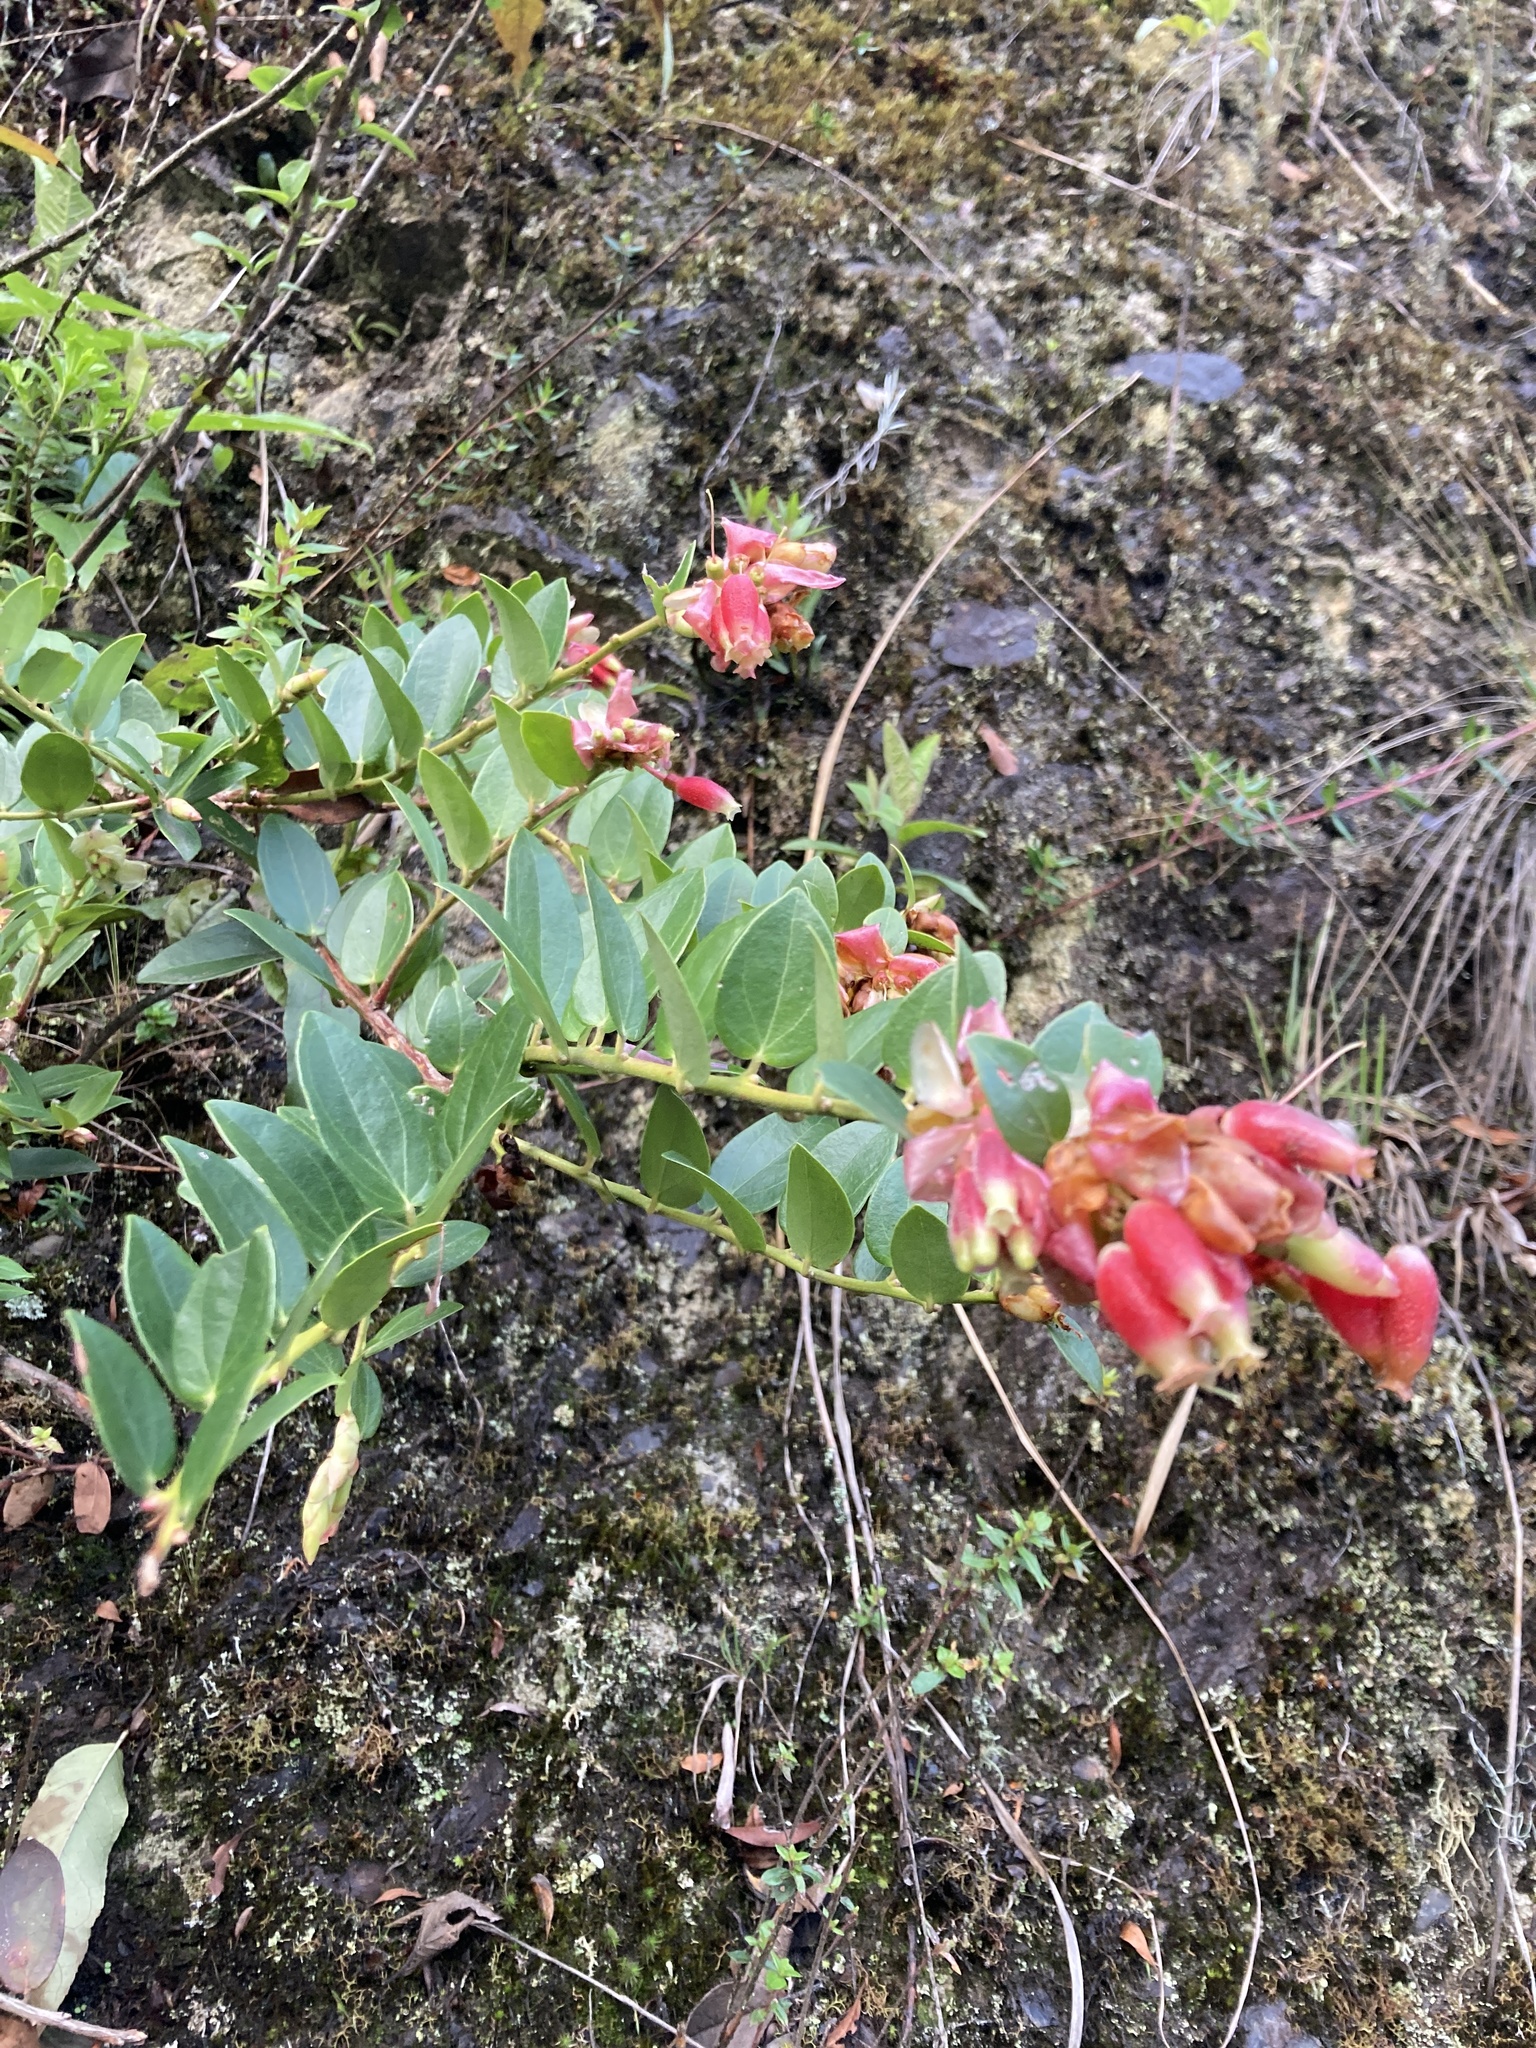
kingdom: Plantae
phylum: Tracheophyta
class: Magnoliopsida
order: Ericales
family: Ericaceae
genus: Cavendishia
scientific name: Cavendishia bracteata
